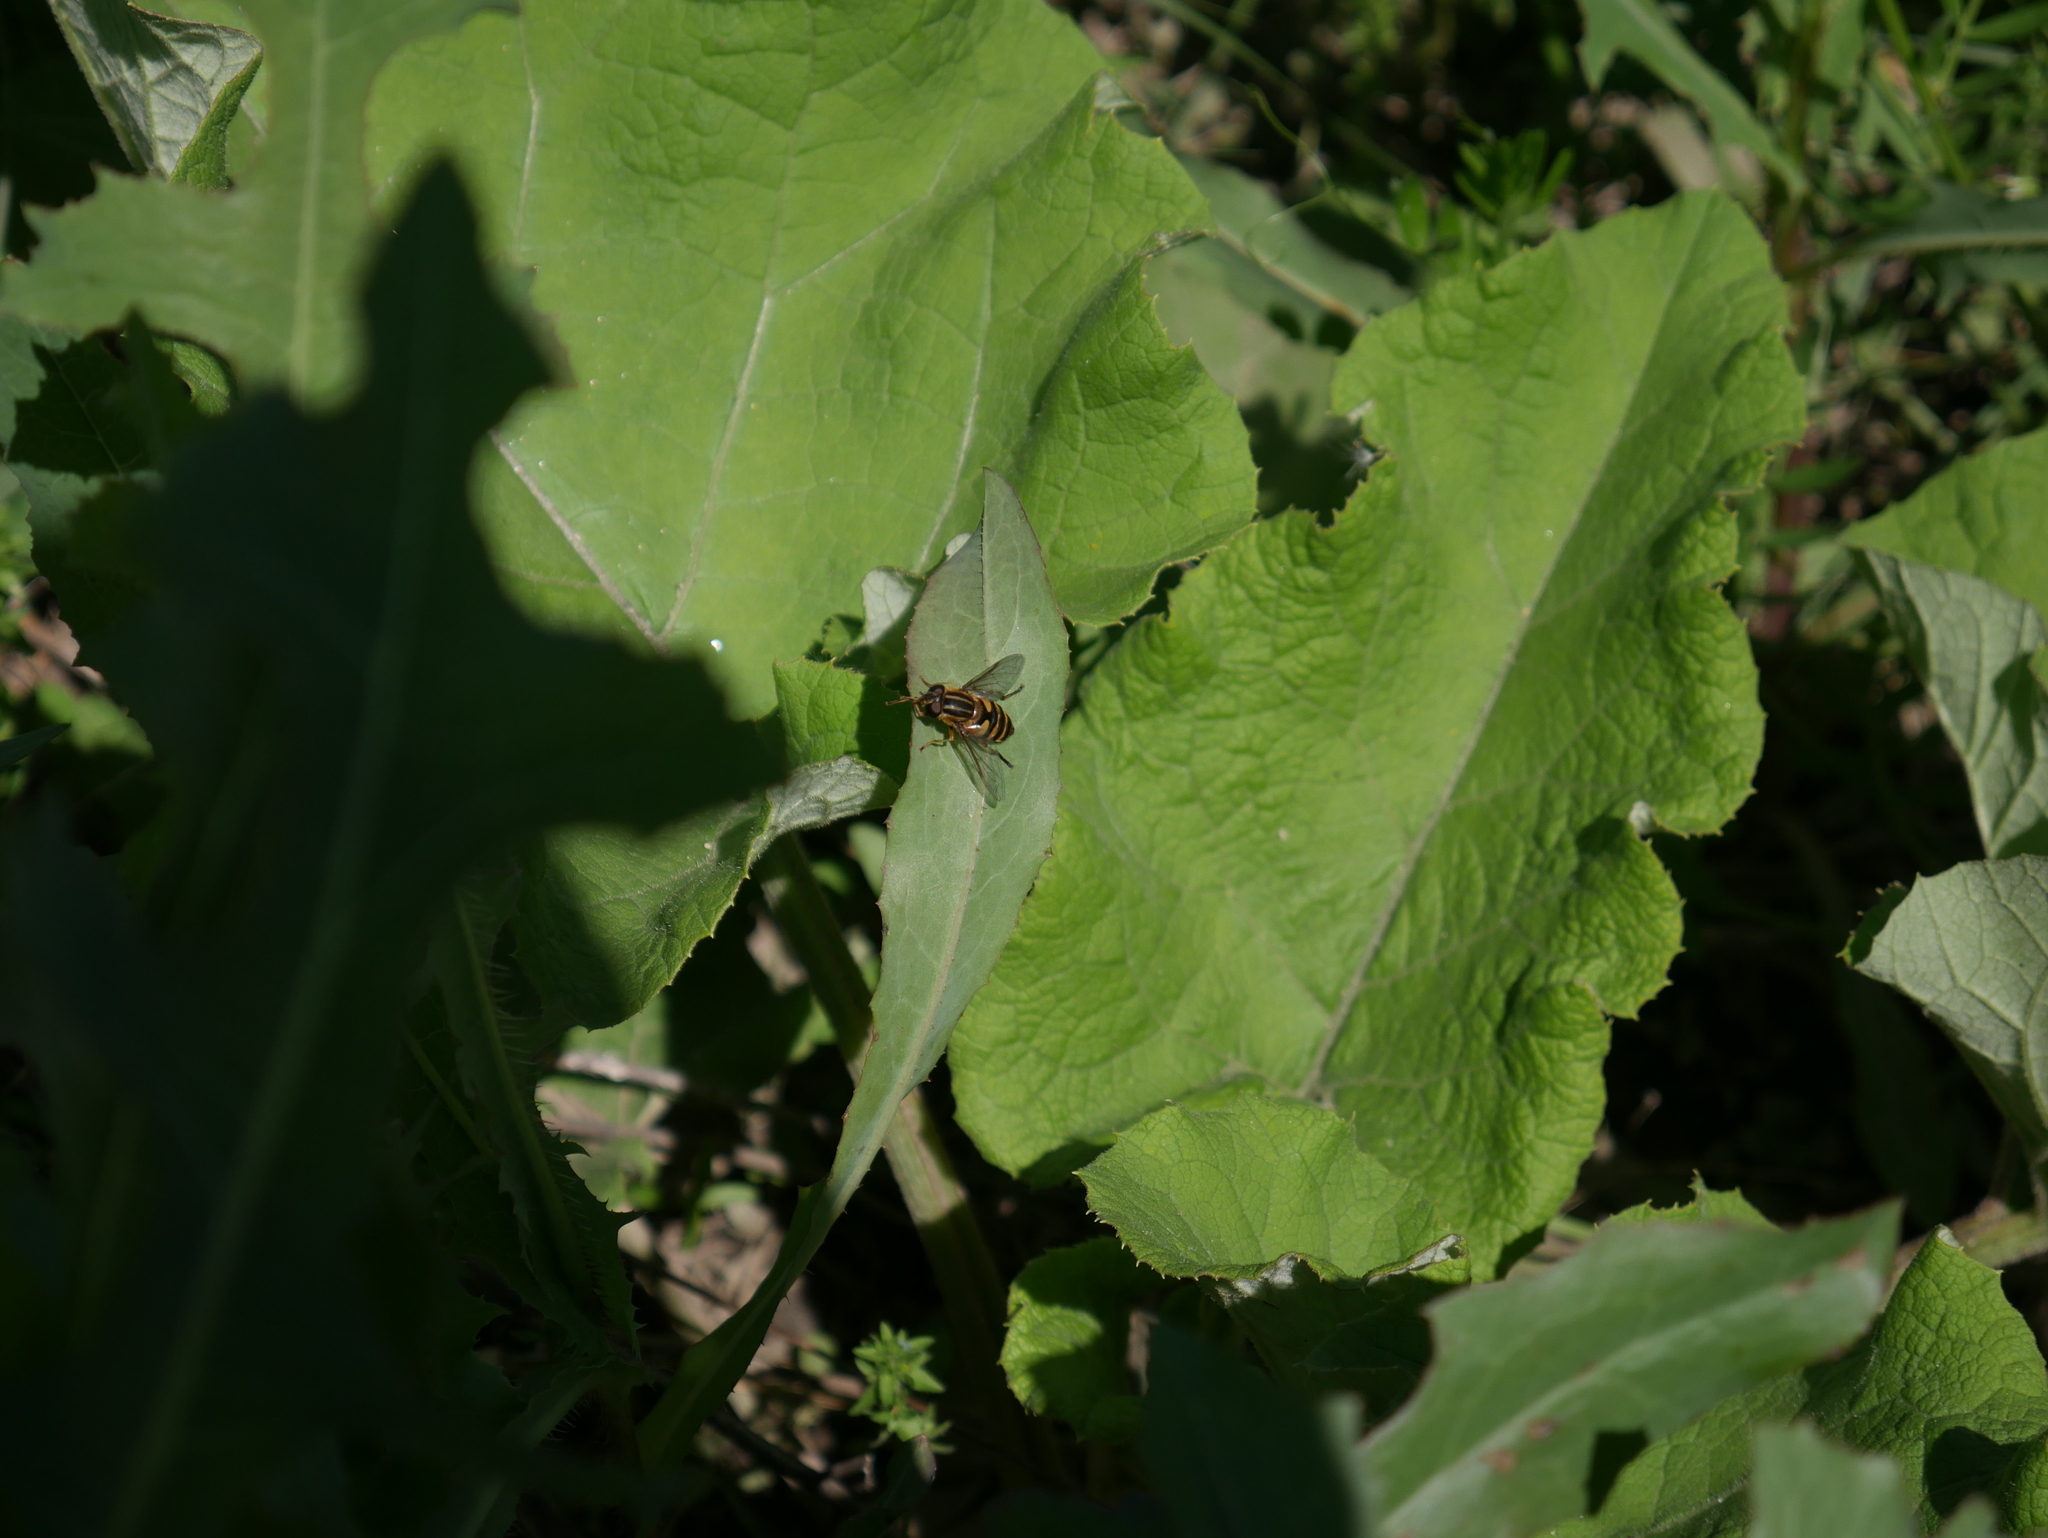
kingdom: Animalia
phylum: Arthropoda
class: Insecta
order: Diptera
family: Syrphidae
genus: Helophilus
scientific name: Helophilus fasciatus
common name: Narrow-headed marsh fly
